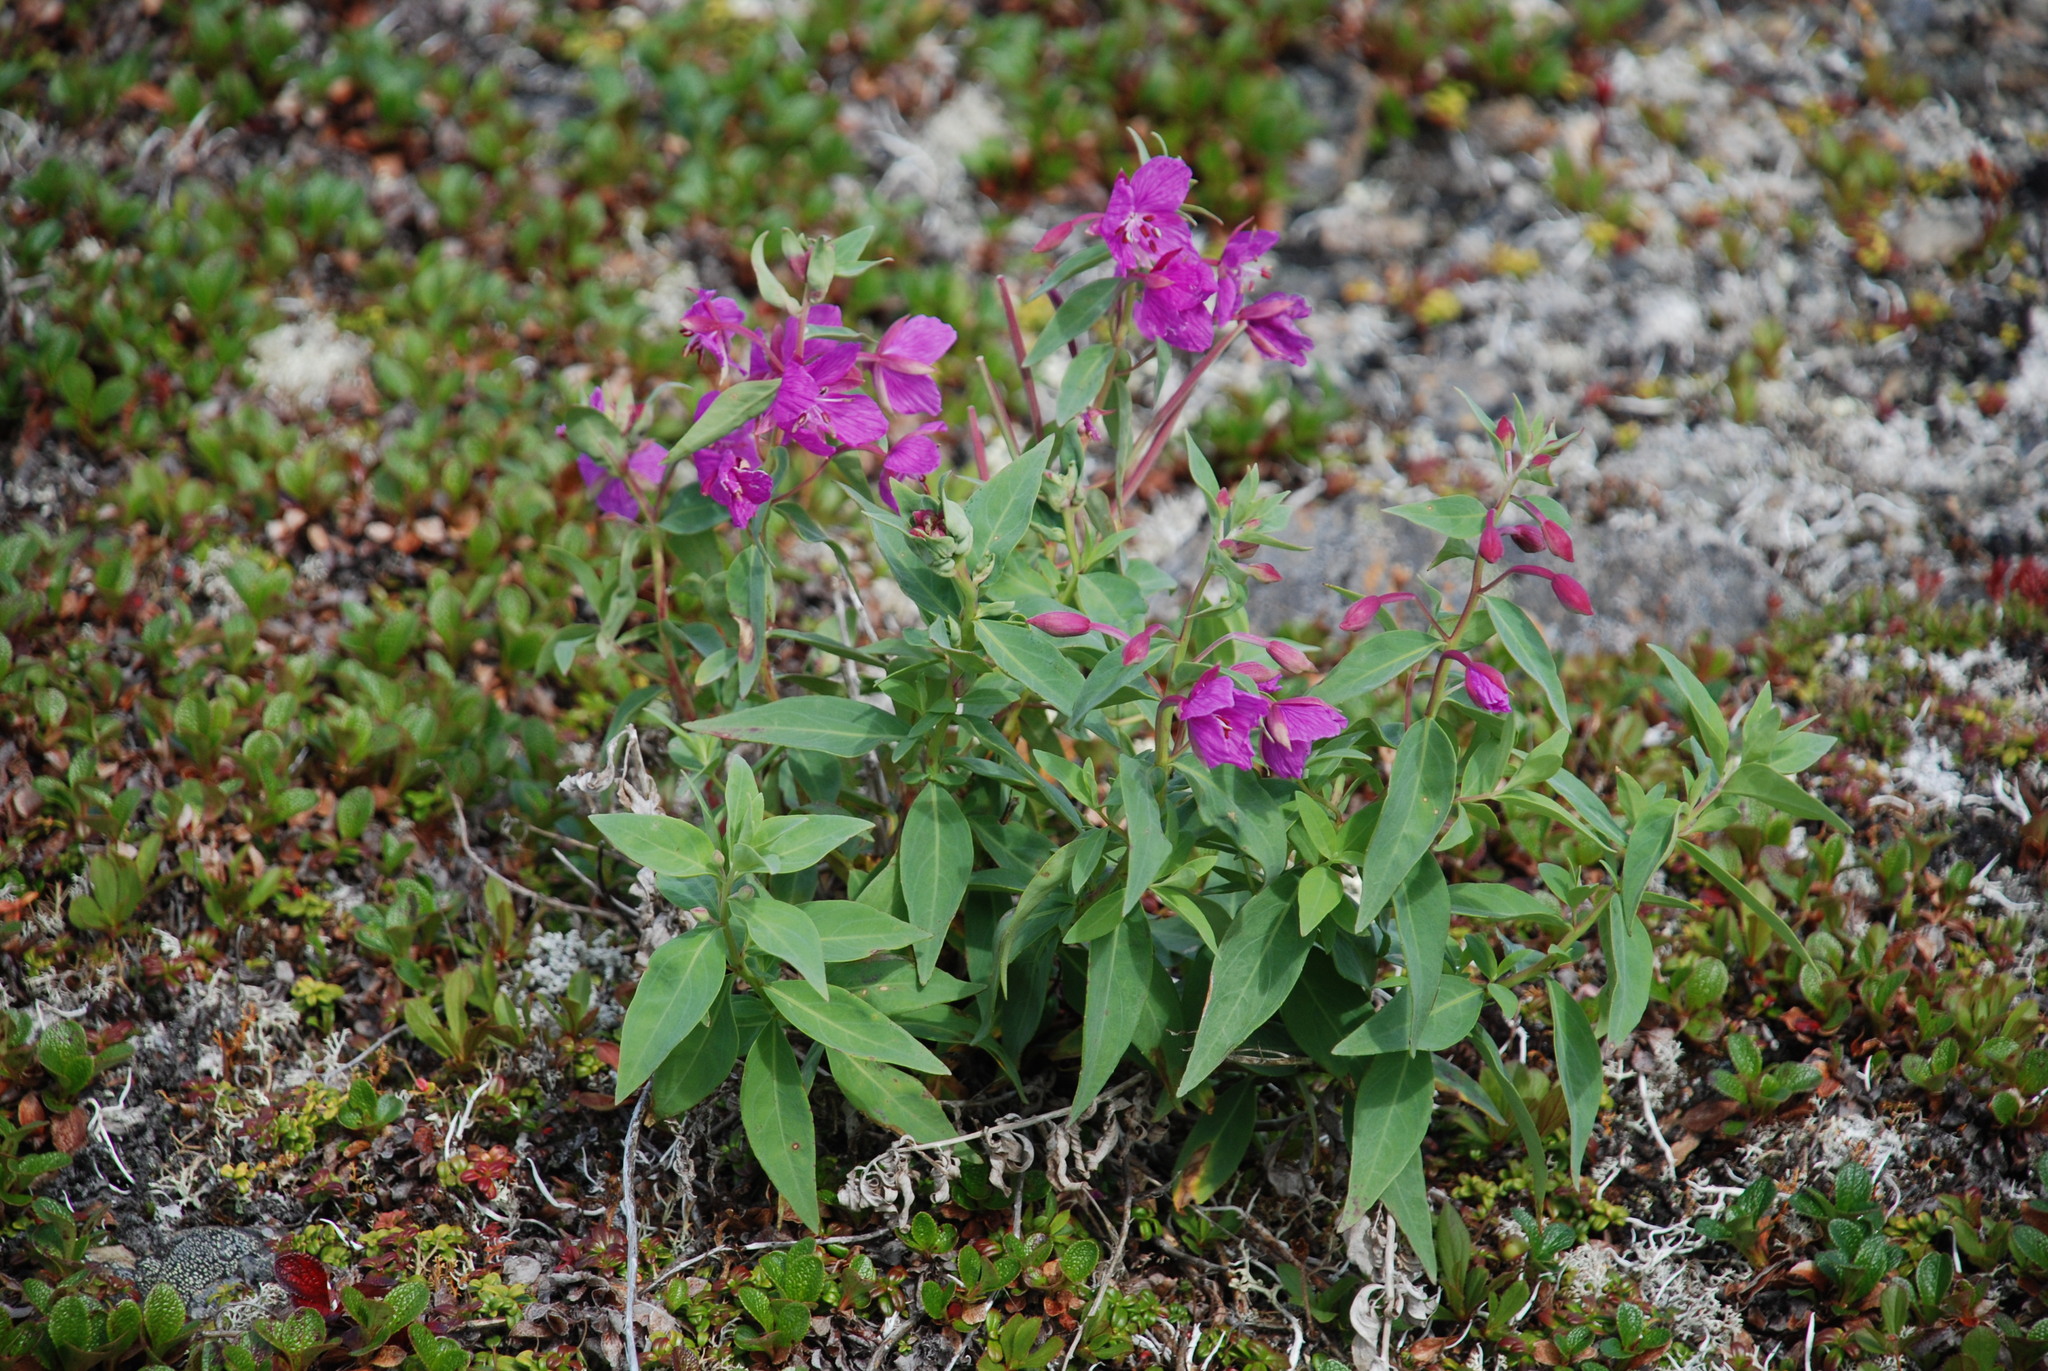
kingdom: Plantae
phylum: Tracheophyta
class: Magnoliopsida
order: Myrtales
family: Onagraceae
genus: Chamaenerion
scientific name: Chamaenerion latifolium
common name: Dwarf fireweed
